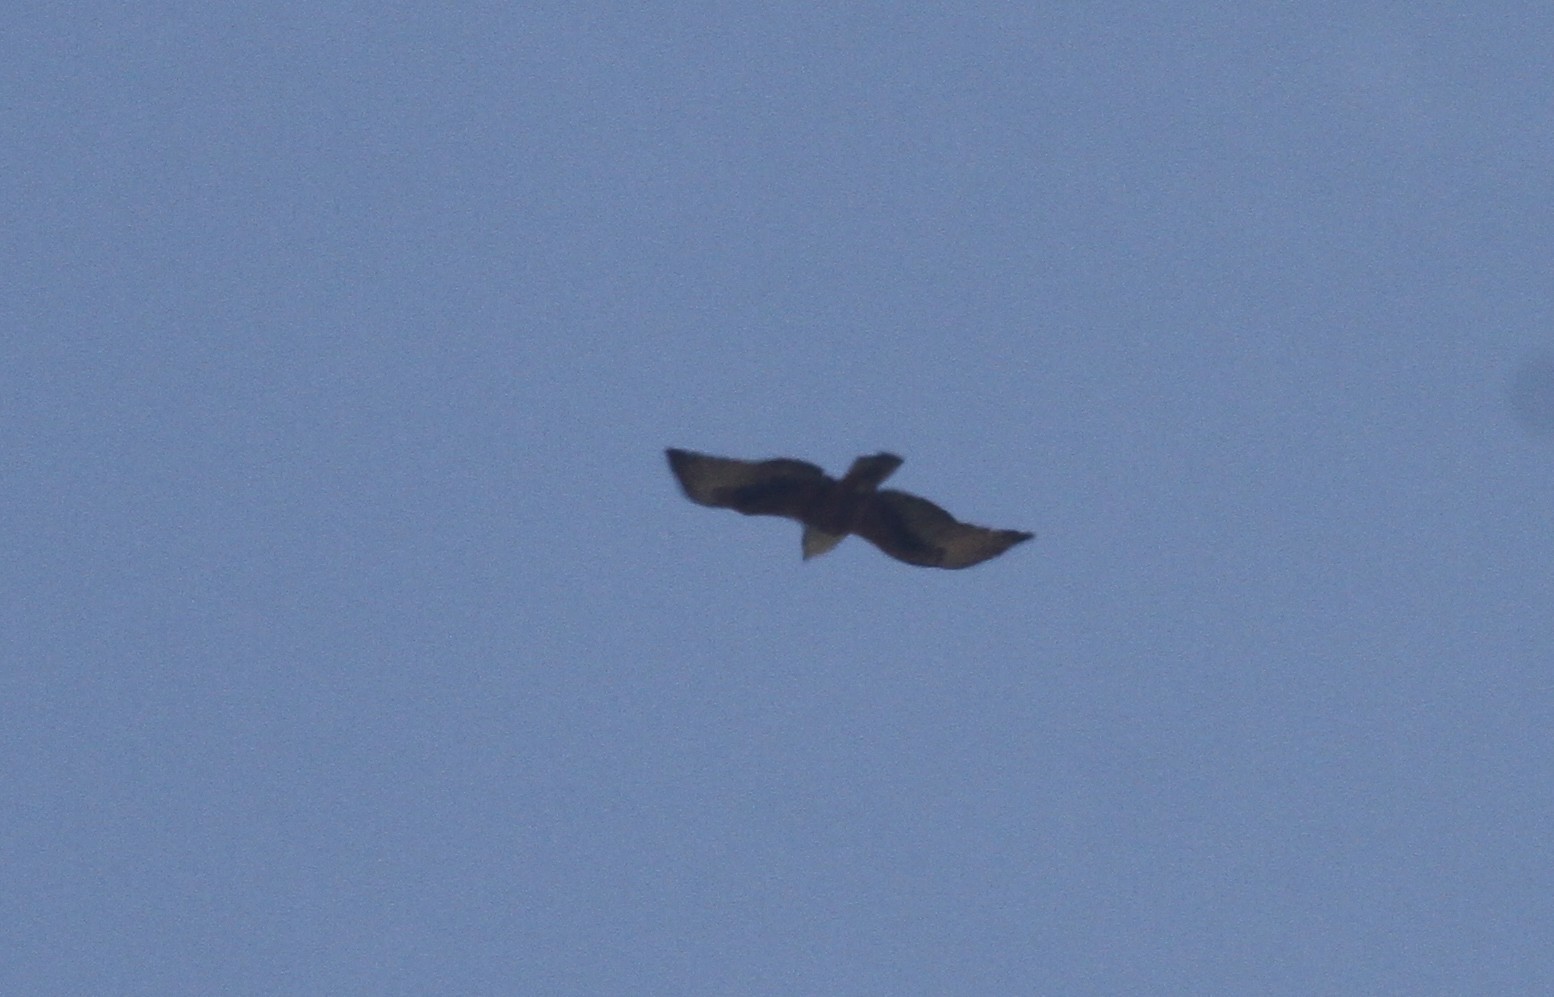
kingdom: Animalia
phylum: Chordata
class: Aves
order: Accipitriformes
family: Accipitridae
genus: Lophotriorchis
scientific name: Lophotriorchis kienerii
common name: Rufous-bellied eagle
